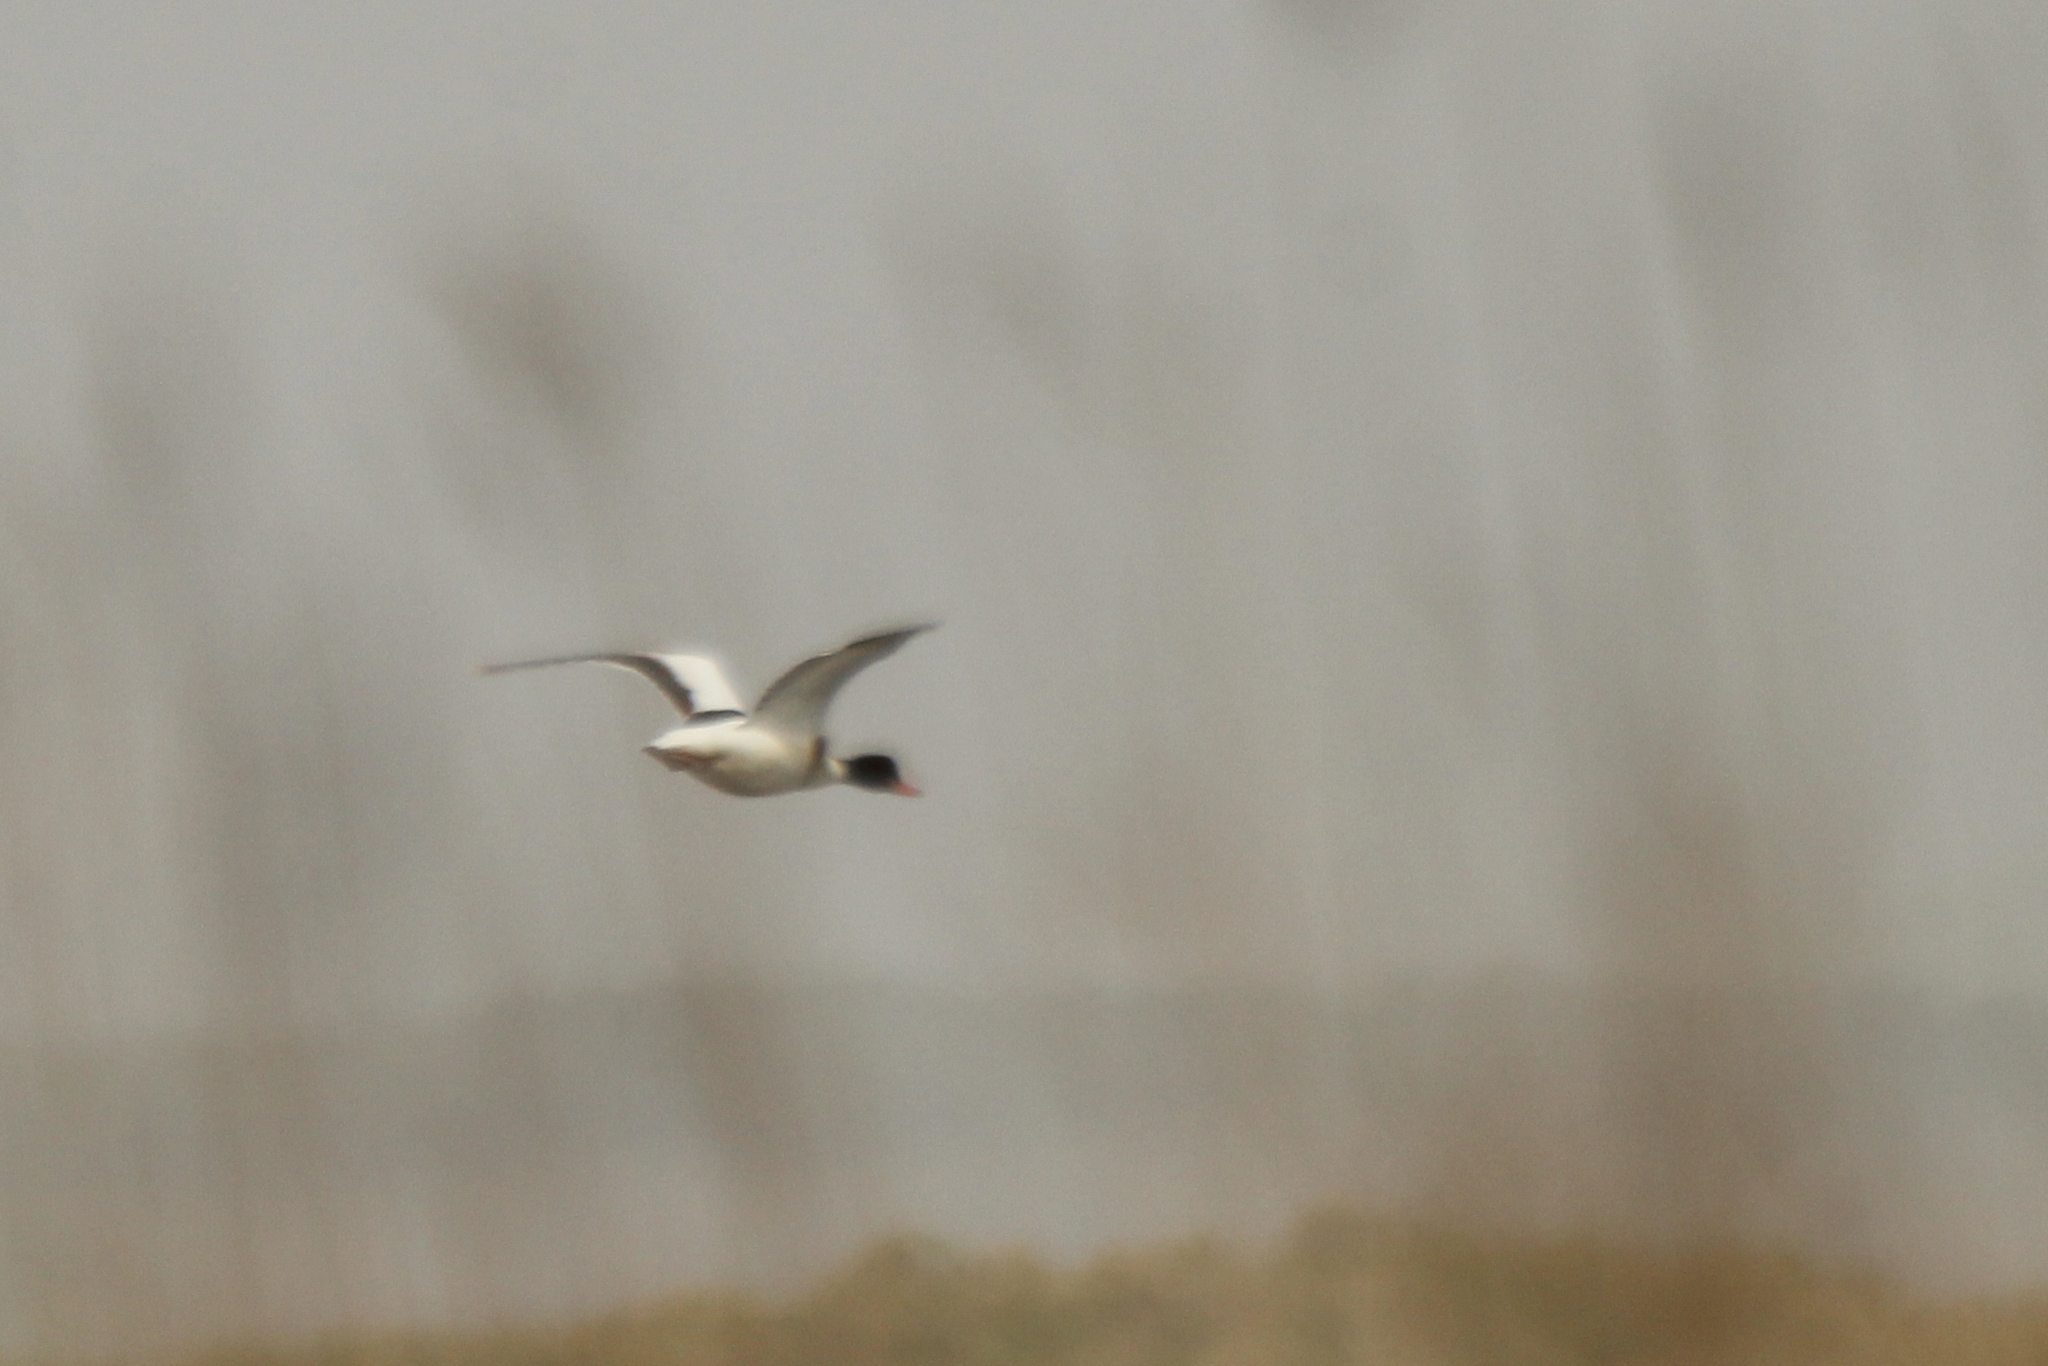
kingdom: Animalia
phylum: Chordata
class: Aves
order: Anseriformes
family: Anatidae
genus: Tadorna
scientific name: Tadorna tadorna
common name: Common shelduck
